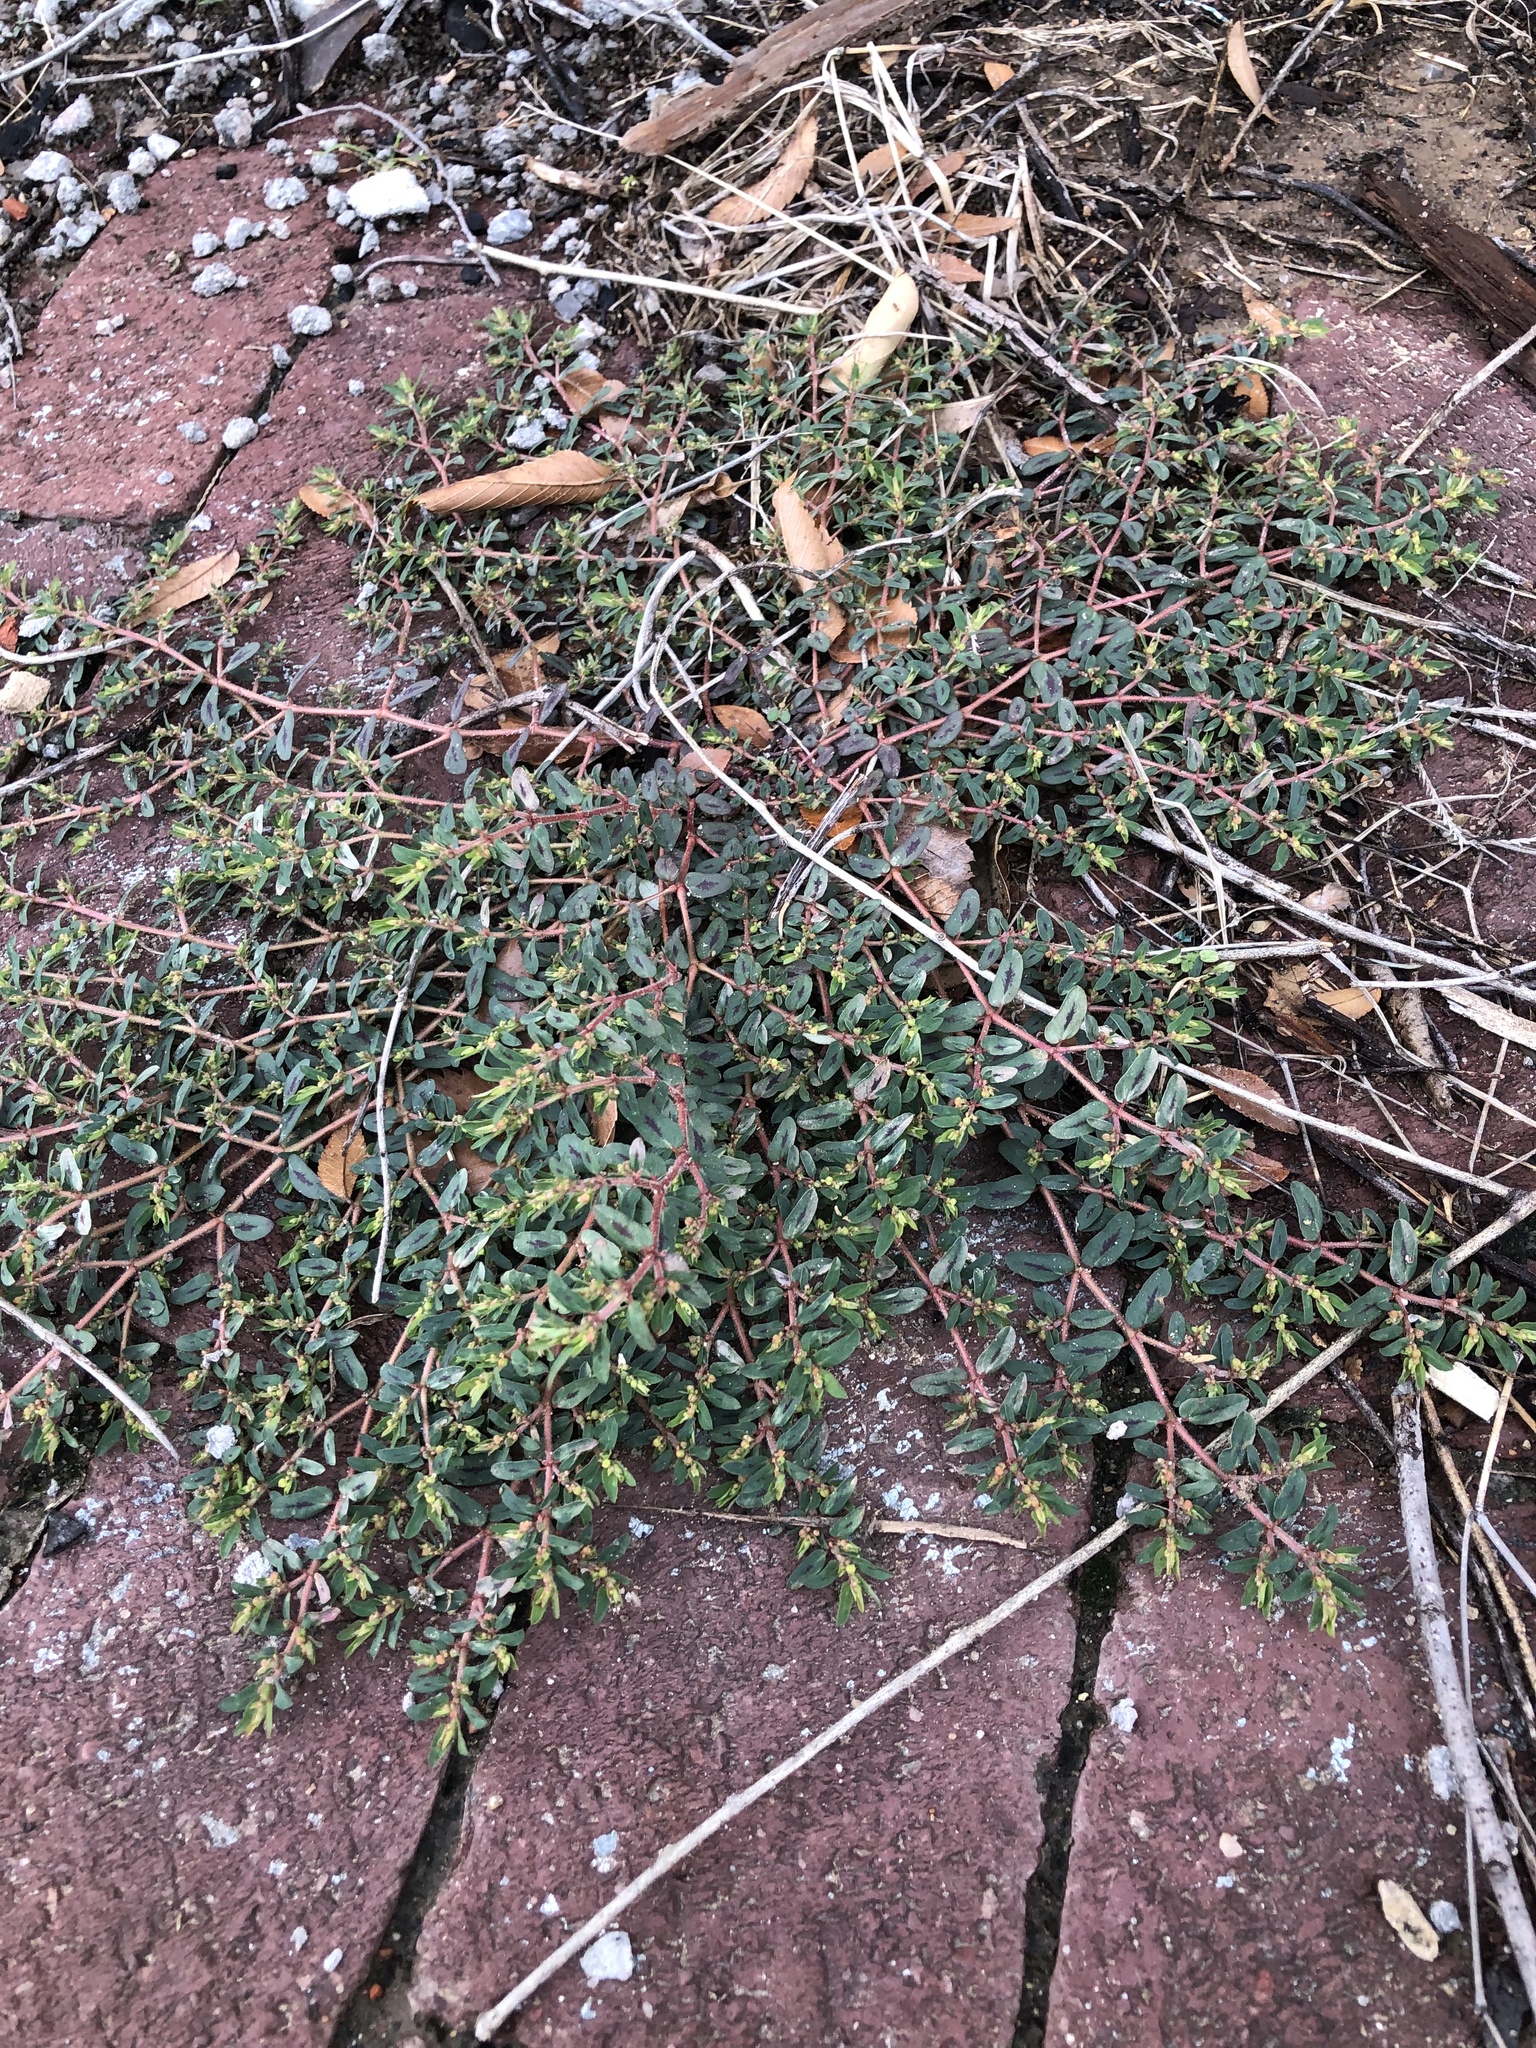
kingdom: Plantae
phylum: Tracheophyta
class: Magnoliopsida
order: Malpighiales
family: Euphorbiaceae
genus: Euphorbia
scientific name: Euphorbia maculata
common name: Spotted spurge
